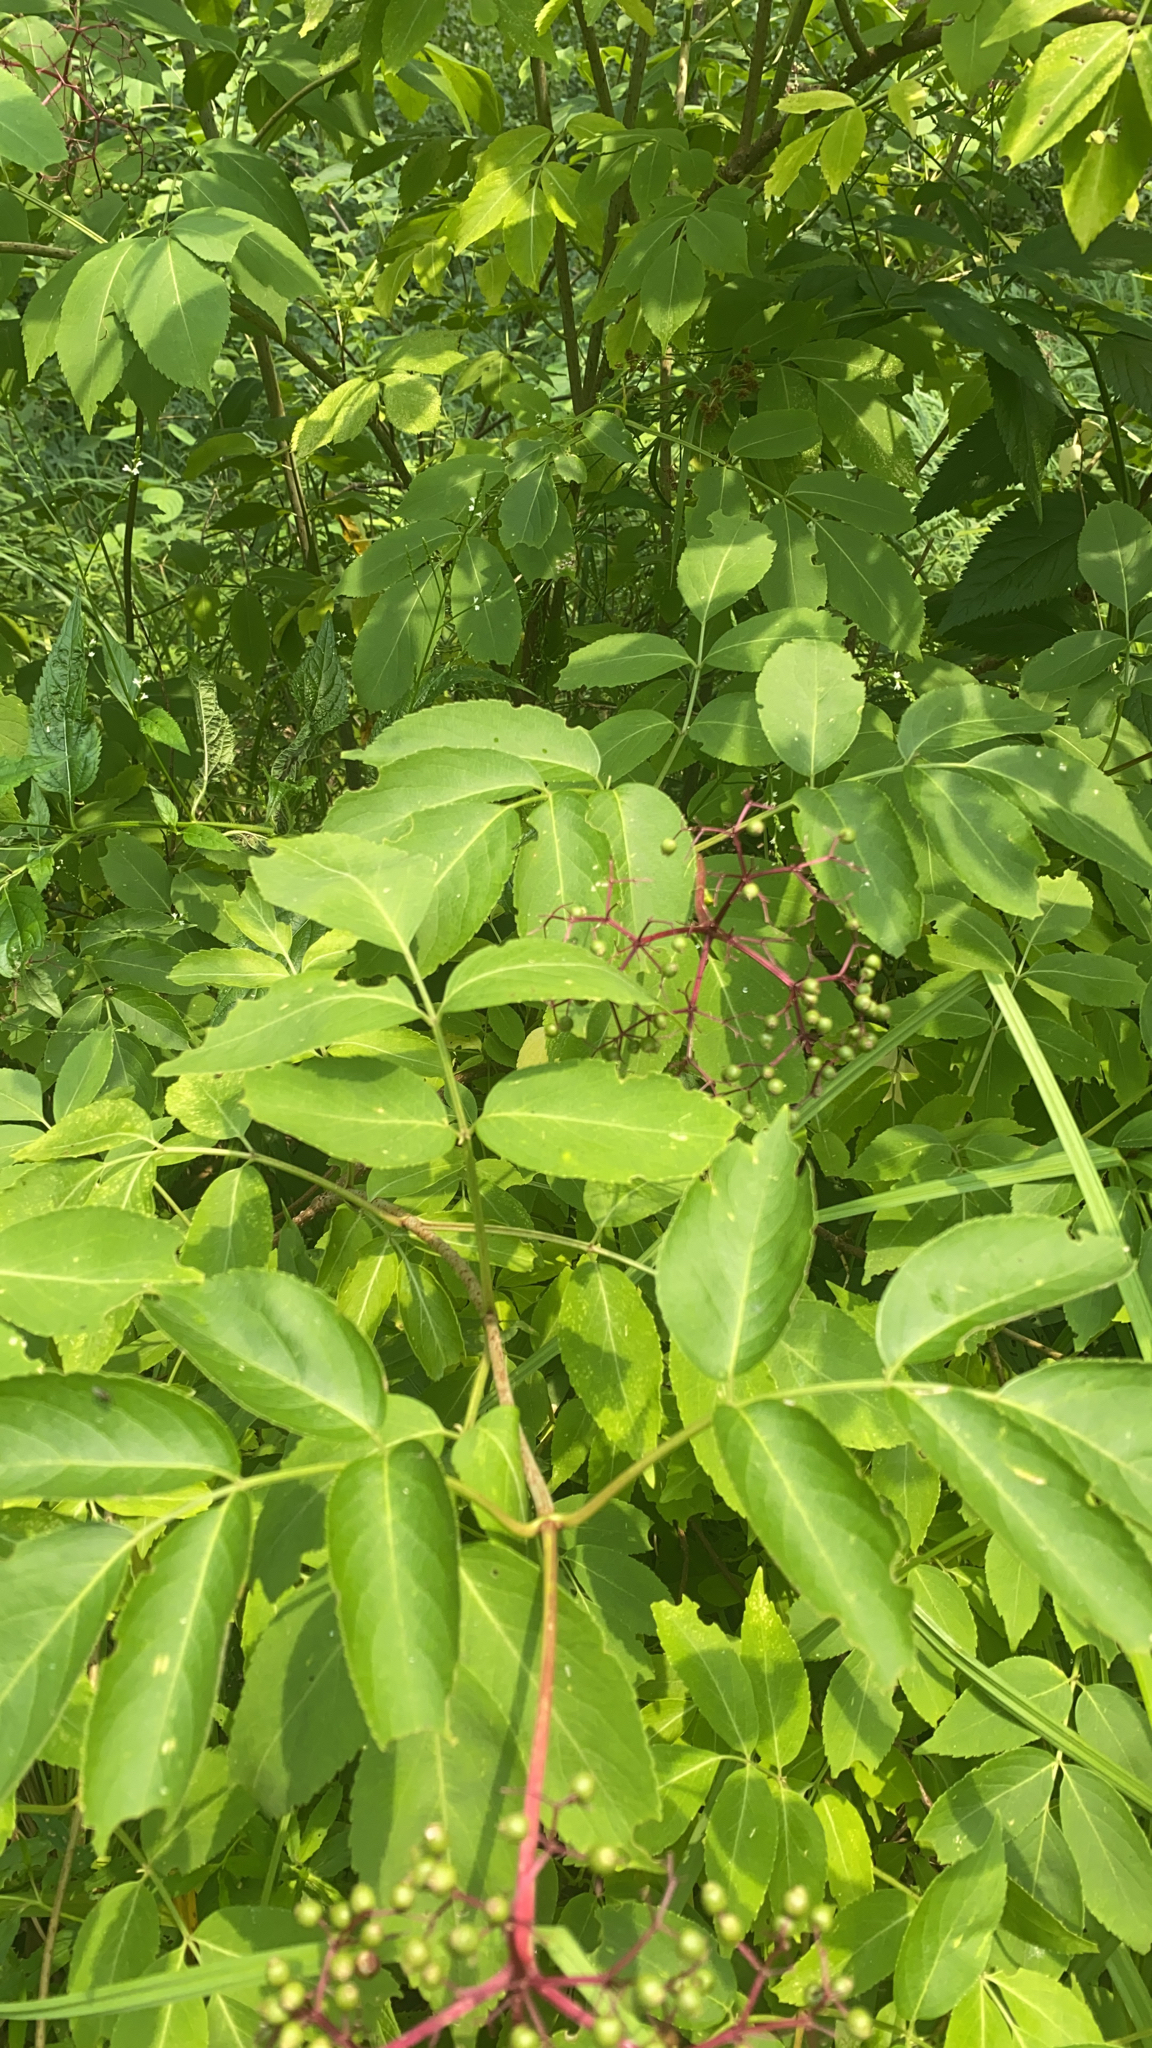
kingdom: Plantae
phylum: Tracheophyta
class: Magnoliopsida
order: Dipsacales
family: Viburnaceae
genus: Sambucus
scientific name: Sambucus canadensis
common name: American elder
